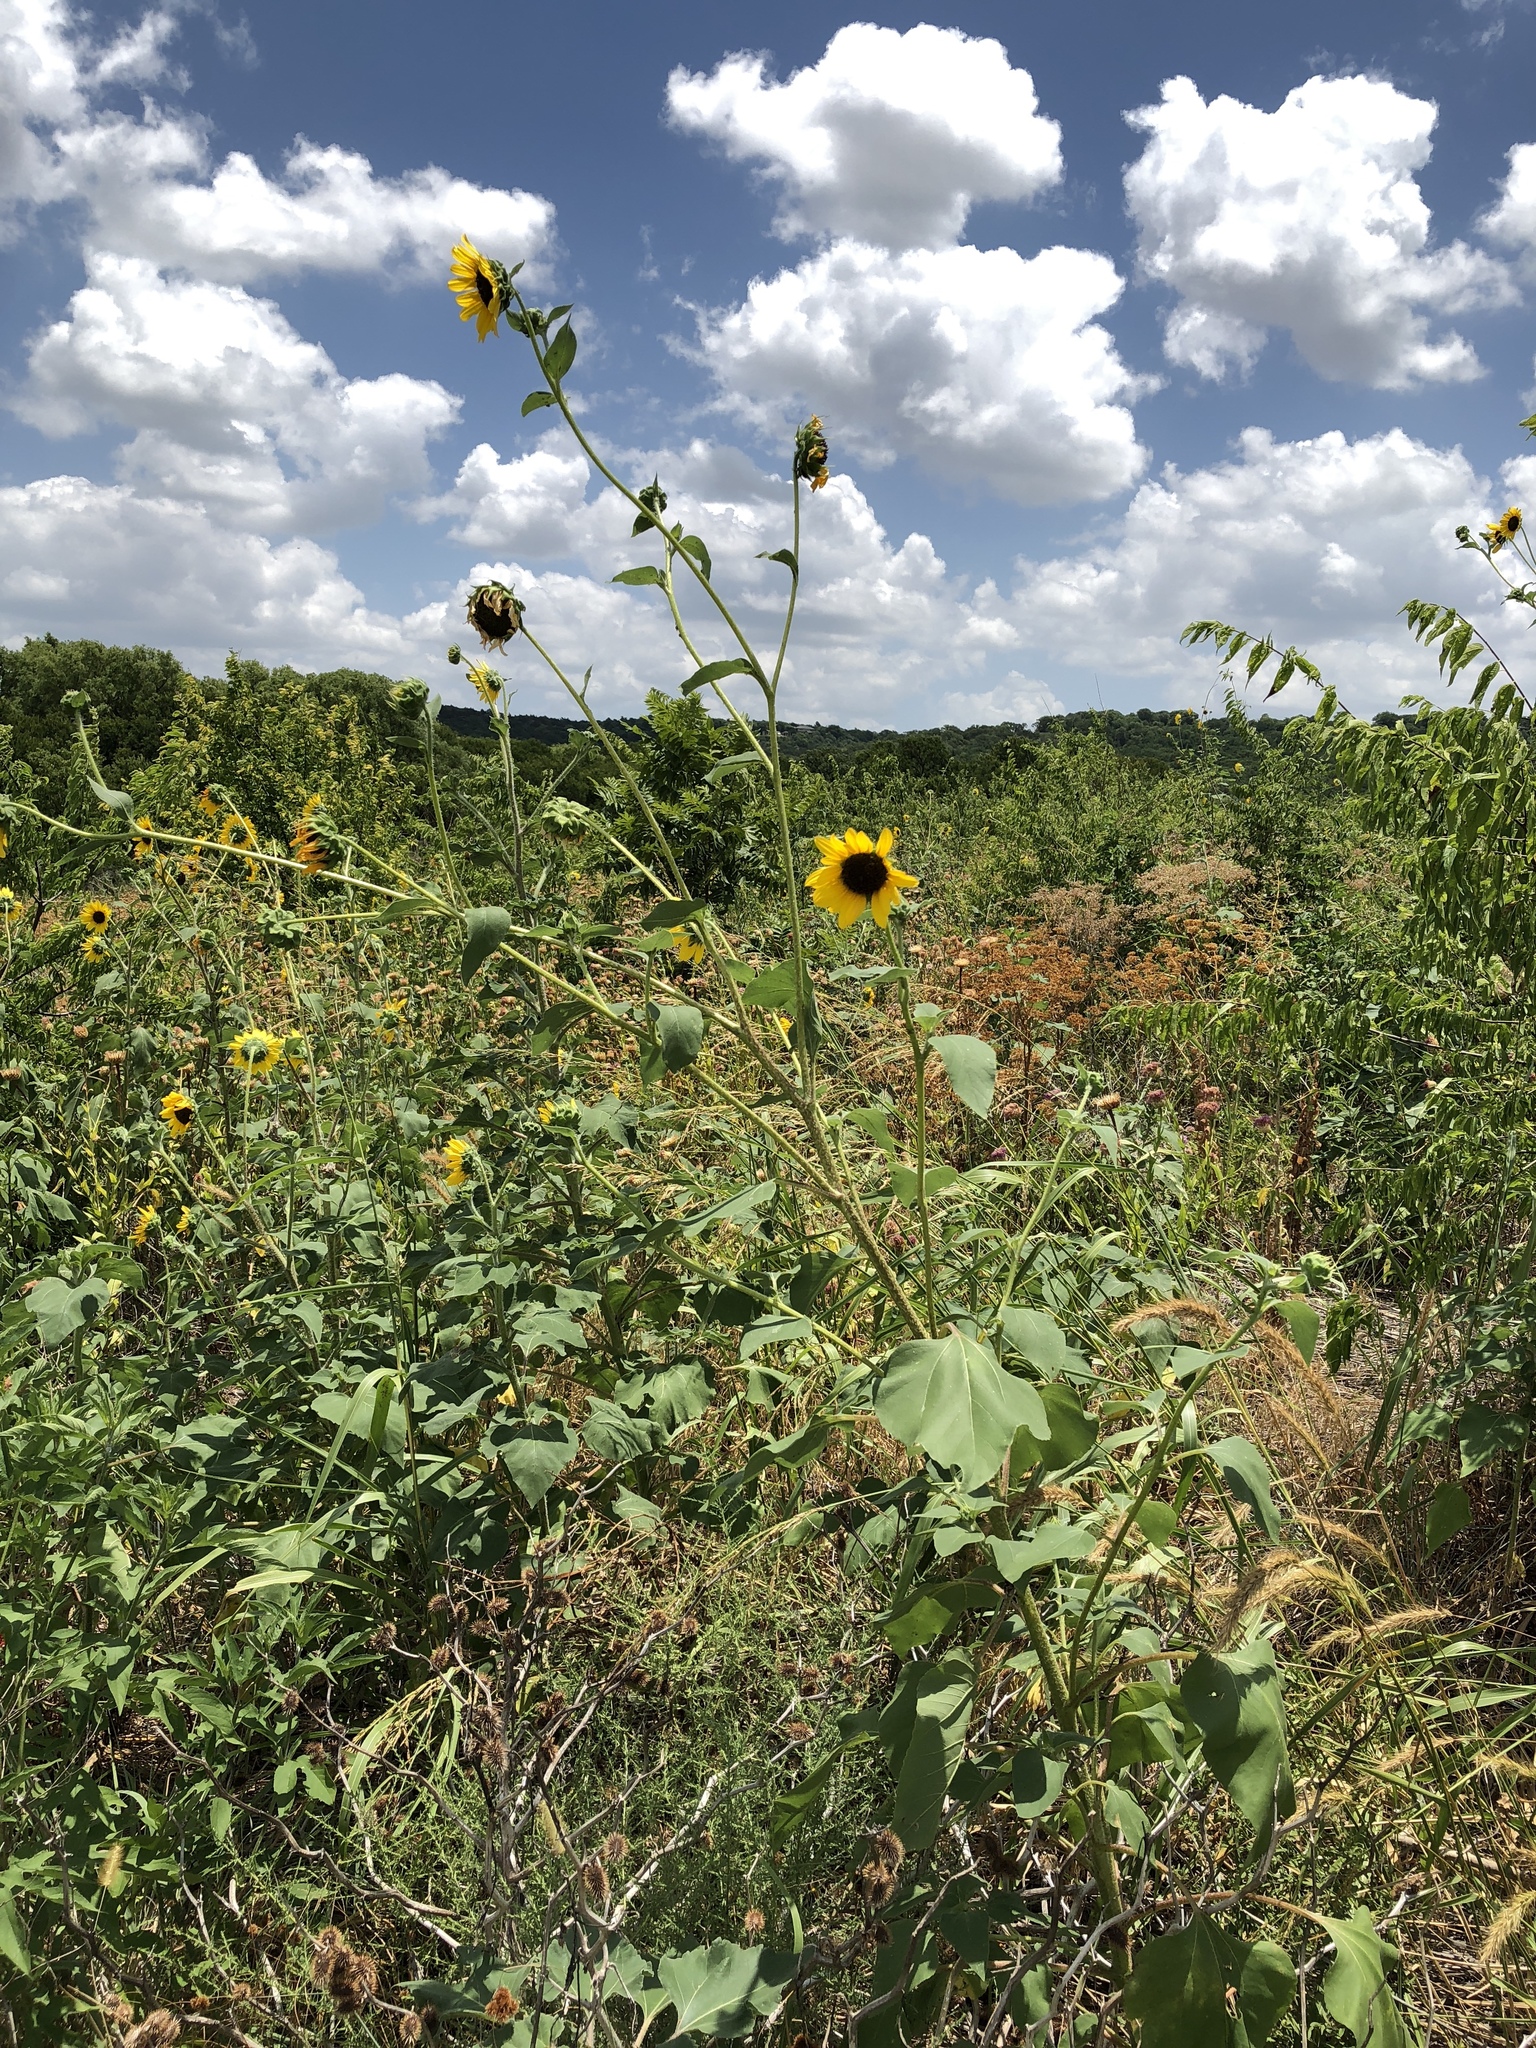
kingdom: Plantae
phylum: Tracheophyta
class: Magnoliopsida
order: Asterales
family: Asteraceae
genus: Helianthus
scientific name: Helianthus annuus
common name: Sunflower
